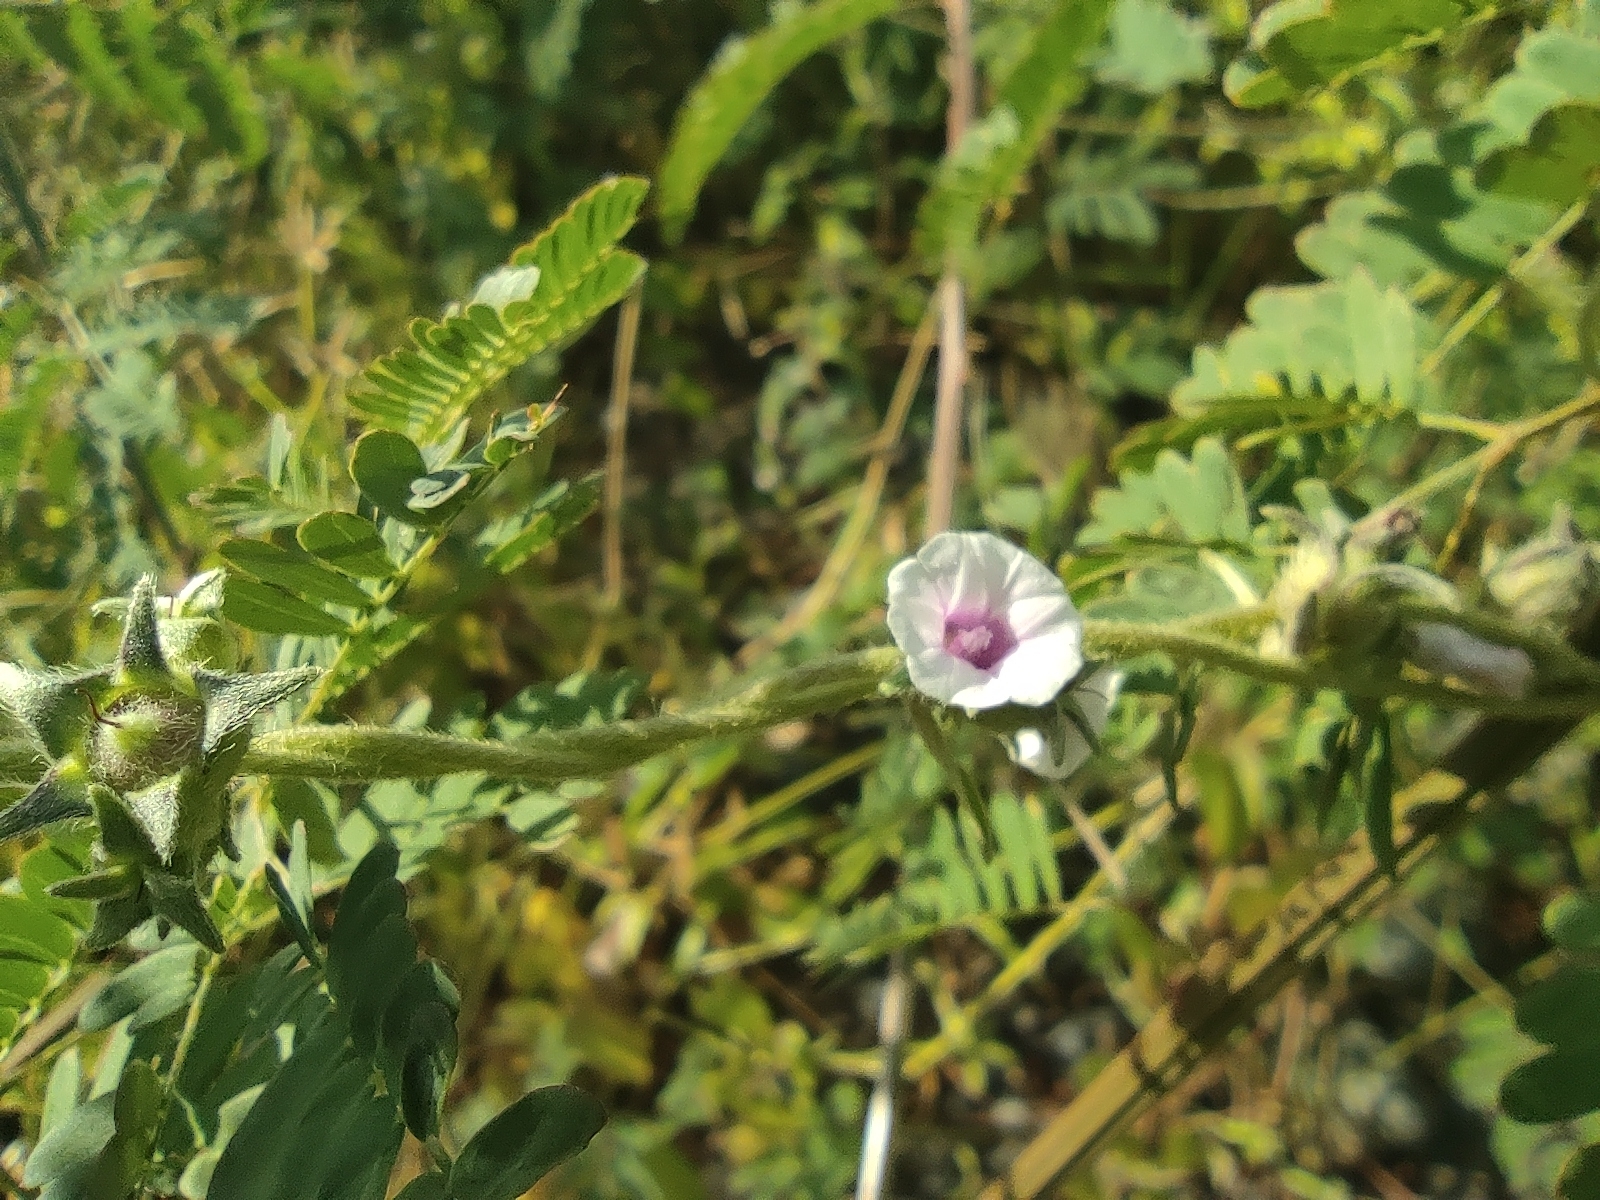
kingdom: Plantae
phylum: Tracheophyta
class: Magnoliopsida
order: Solanales
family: Convolvulaceae
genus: Ipomoea
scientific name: Ipomoea eriocarpa
